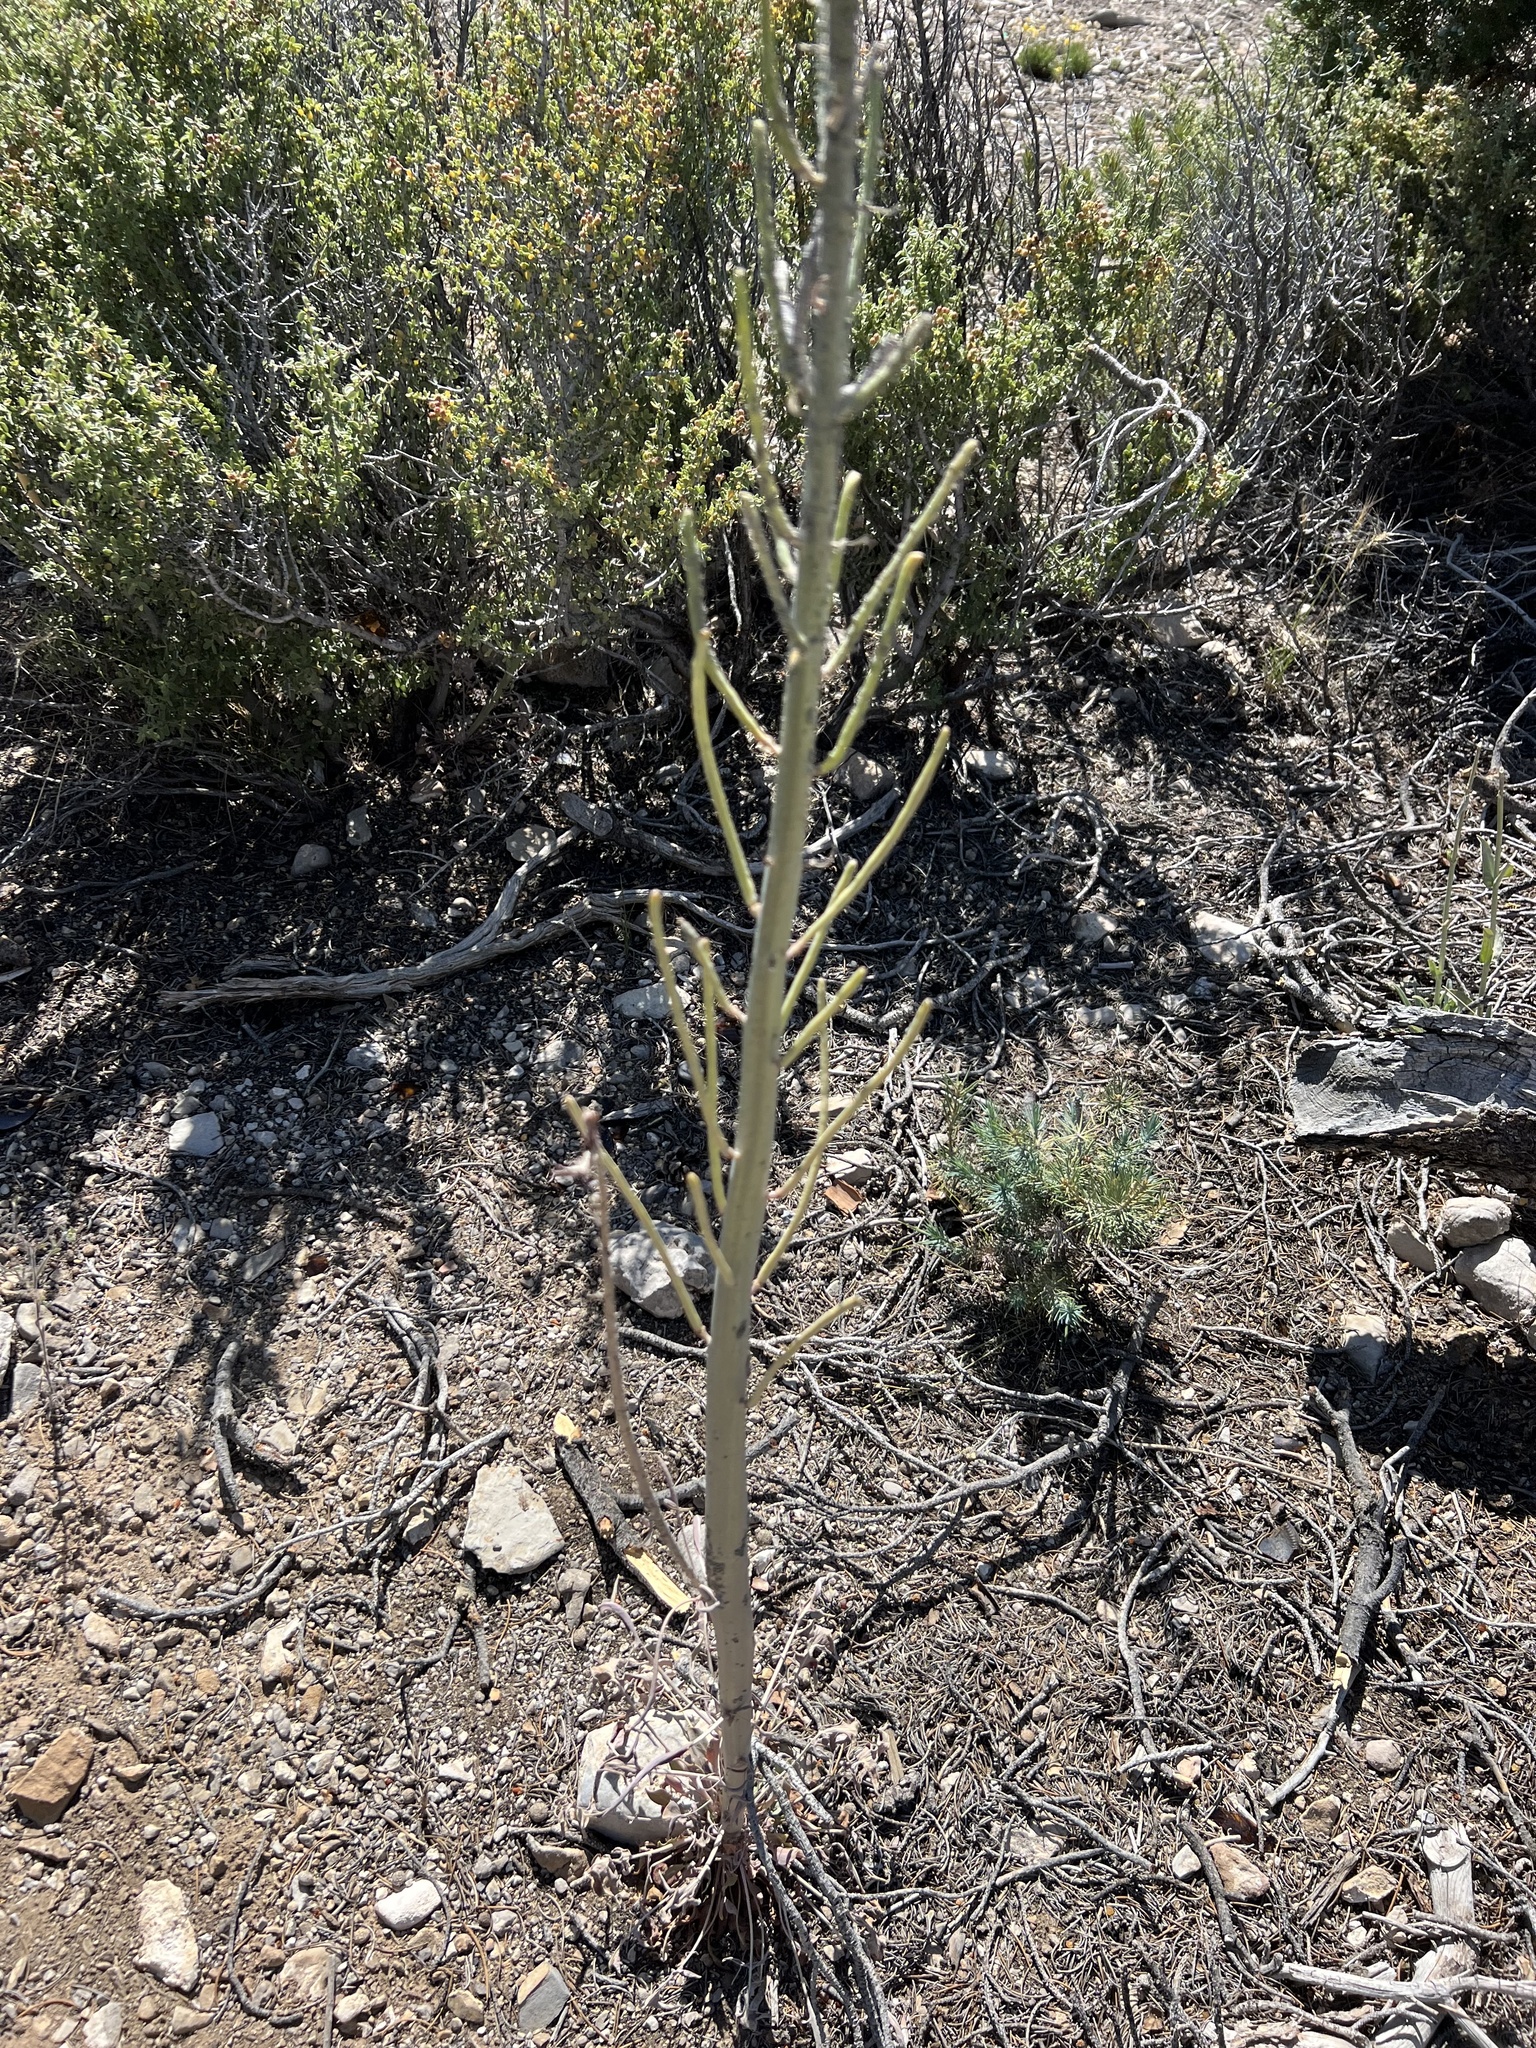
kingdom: Plantae
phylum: Tracheophyta
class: Magnoliopsida
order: Brassicales
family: Brassicaceae
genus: Streptanthus
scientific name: Streptanthus crassicaulis
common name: Thick-stem wild cabbage
